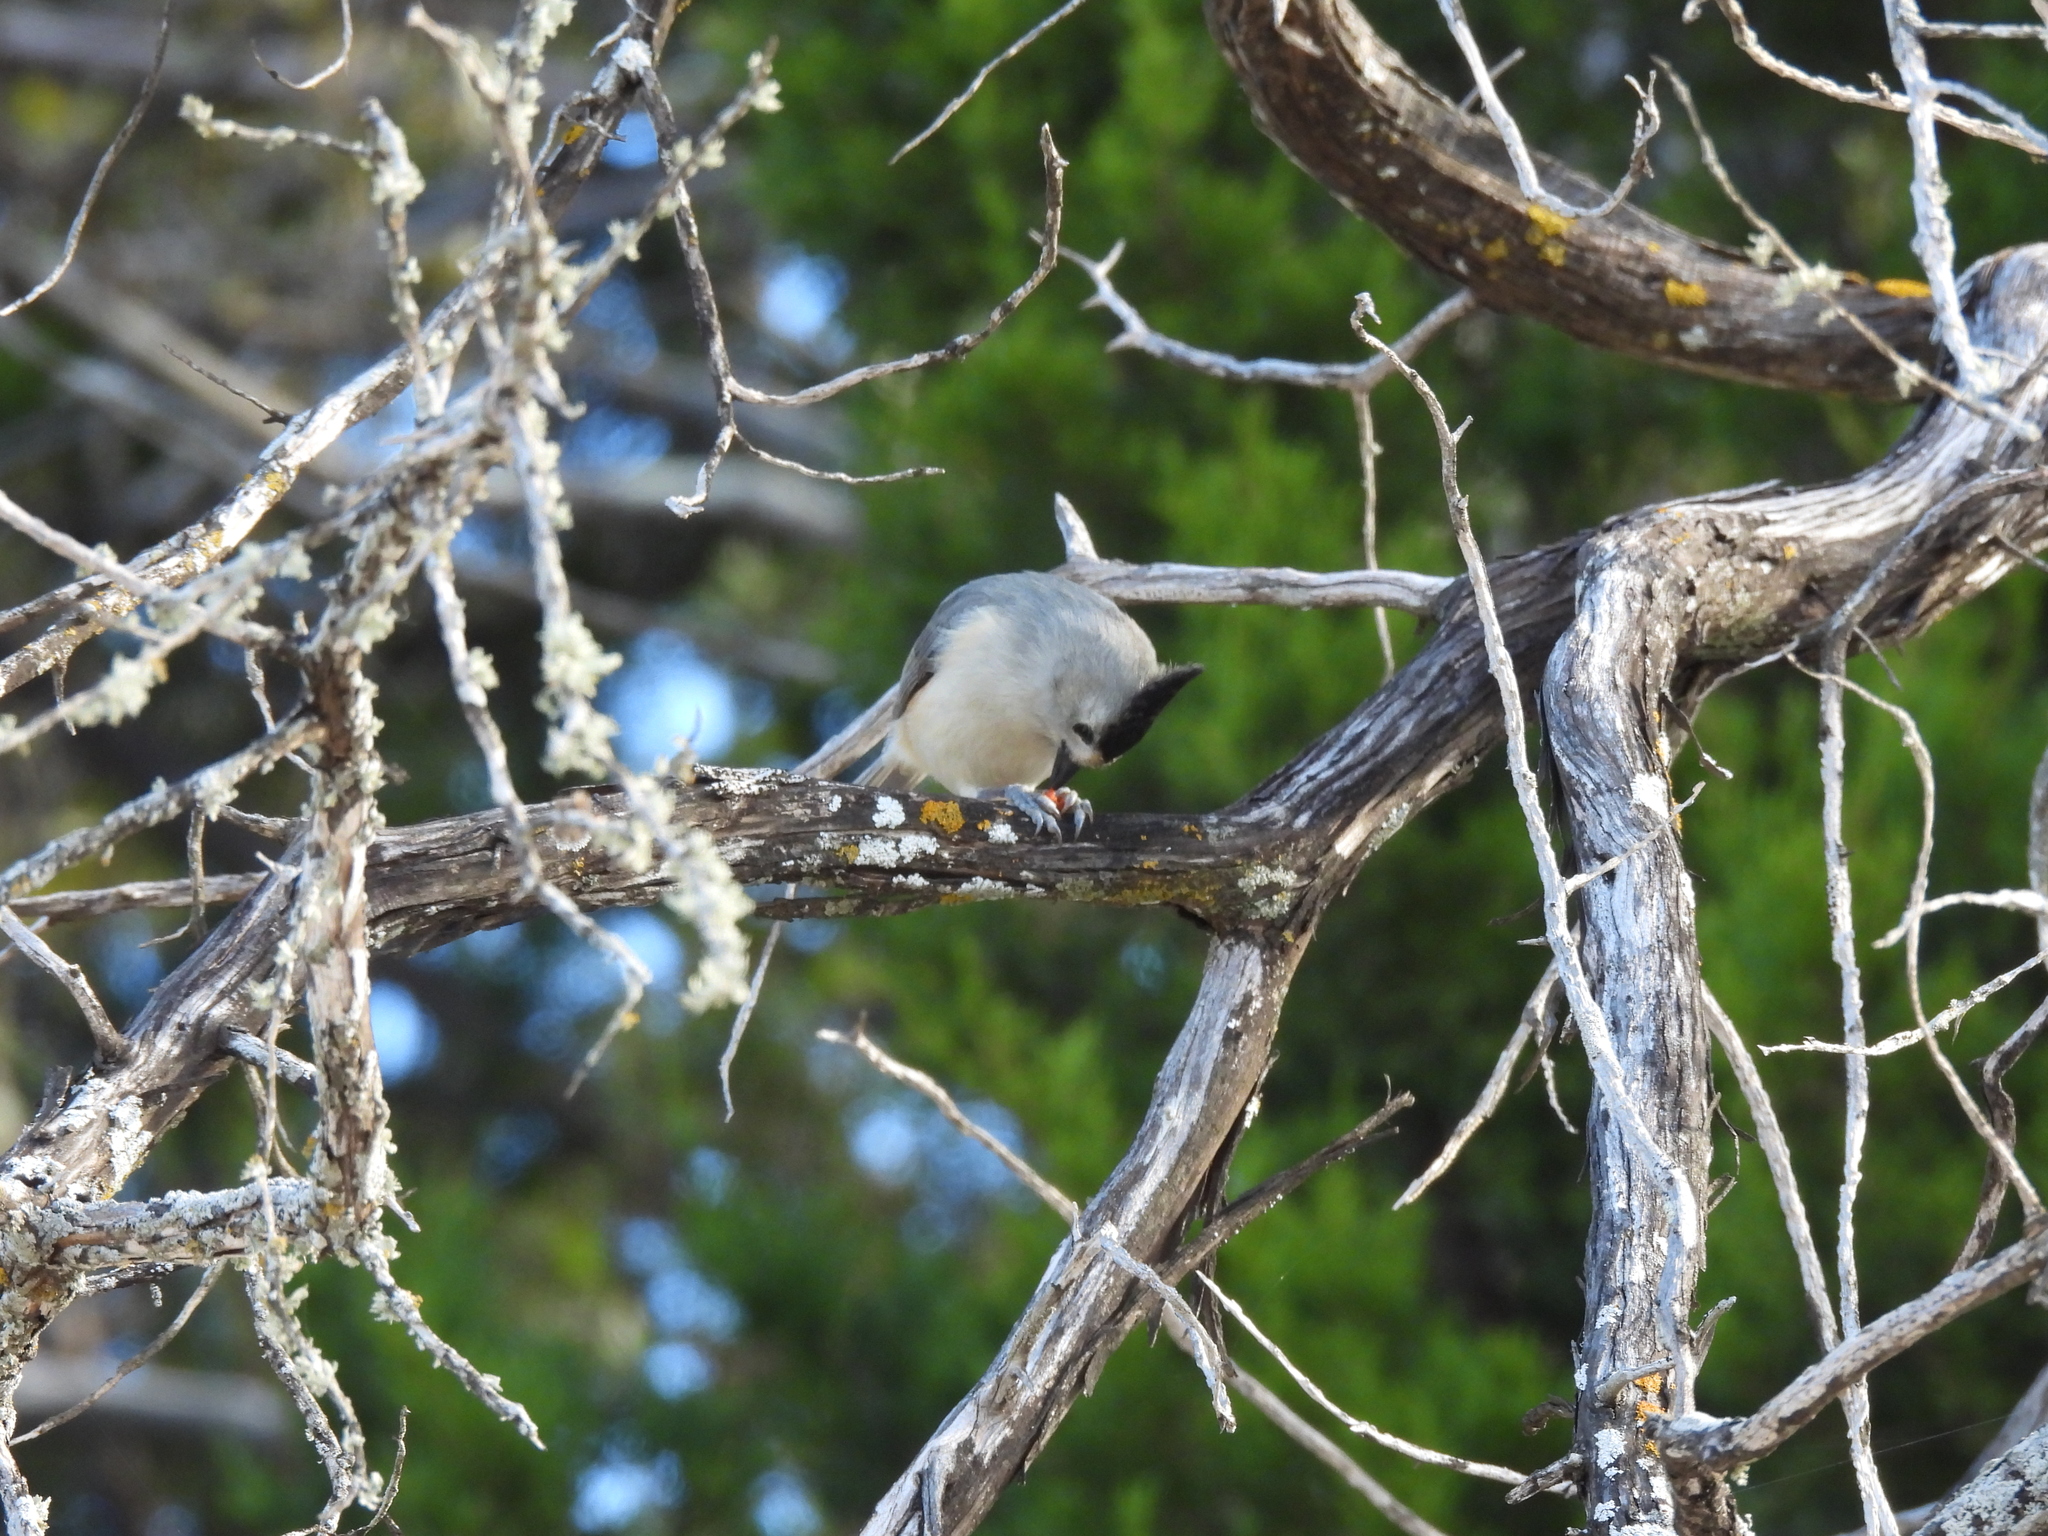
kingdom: Animalia
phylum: Chordata
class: Aves
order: Passeriformes
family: Paridae
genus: Baeolophus
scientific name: Baeolophus atricristatus
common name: Black-crested titmouse
